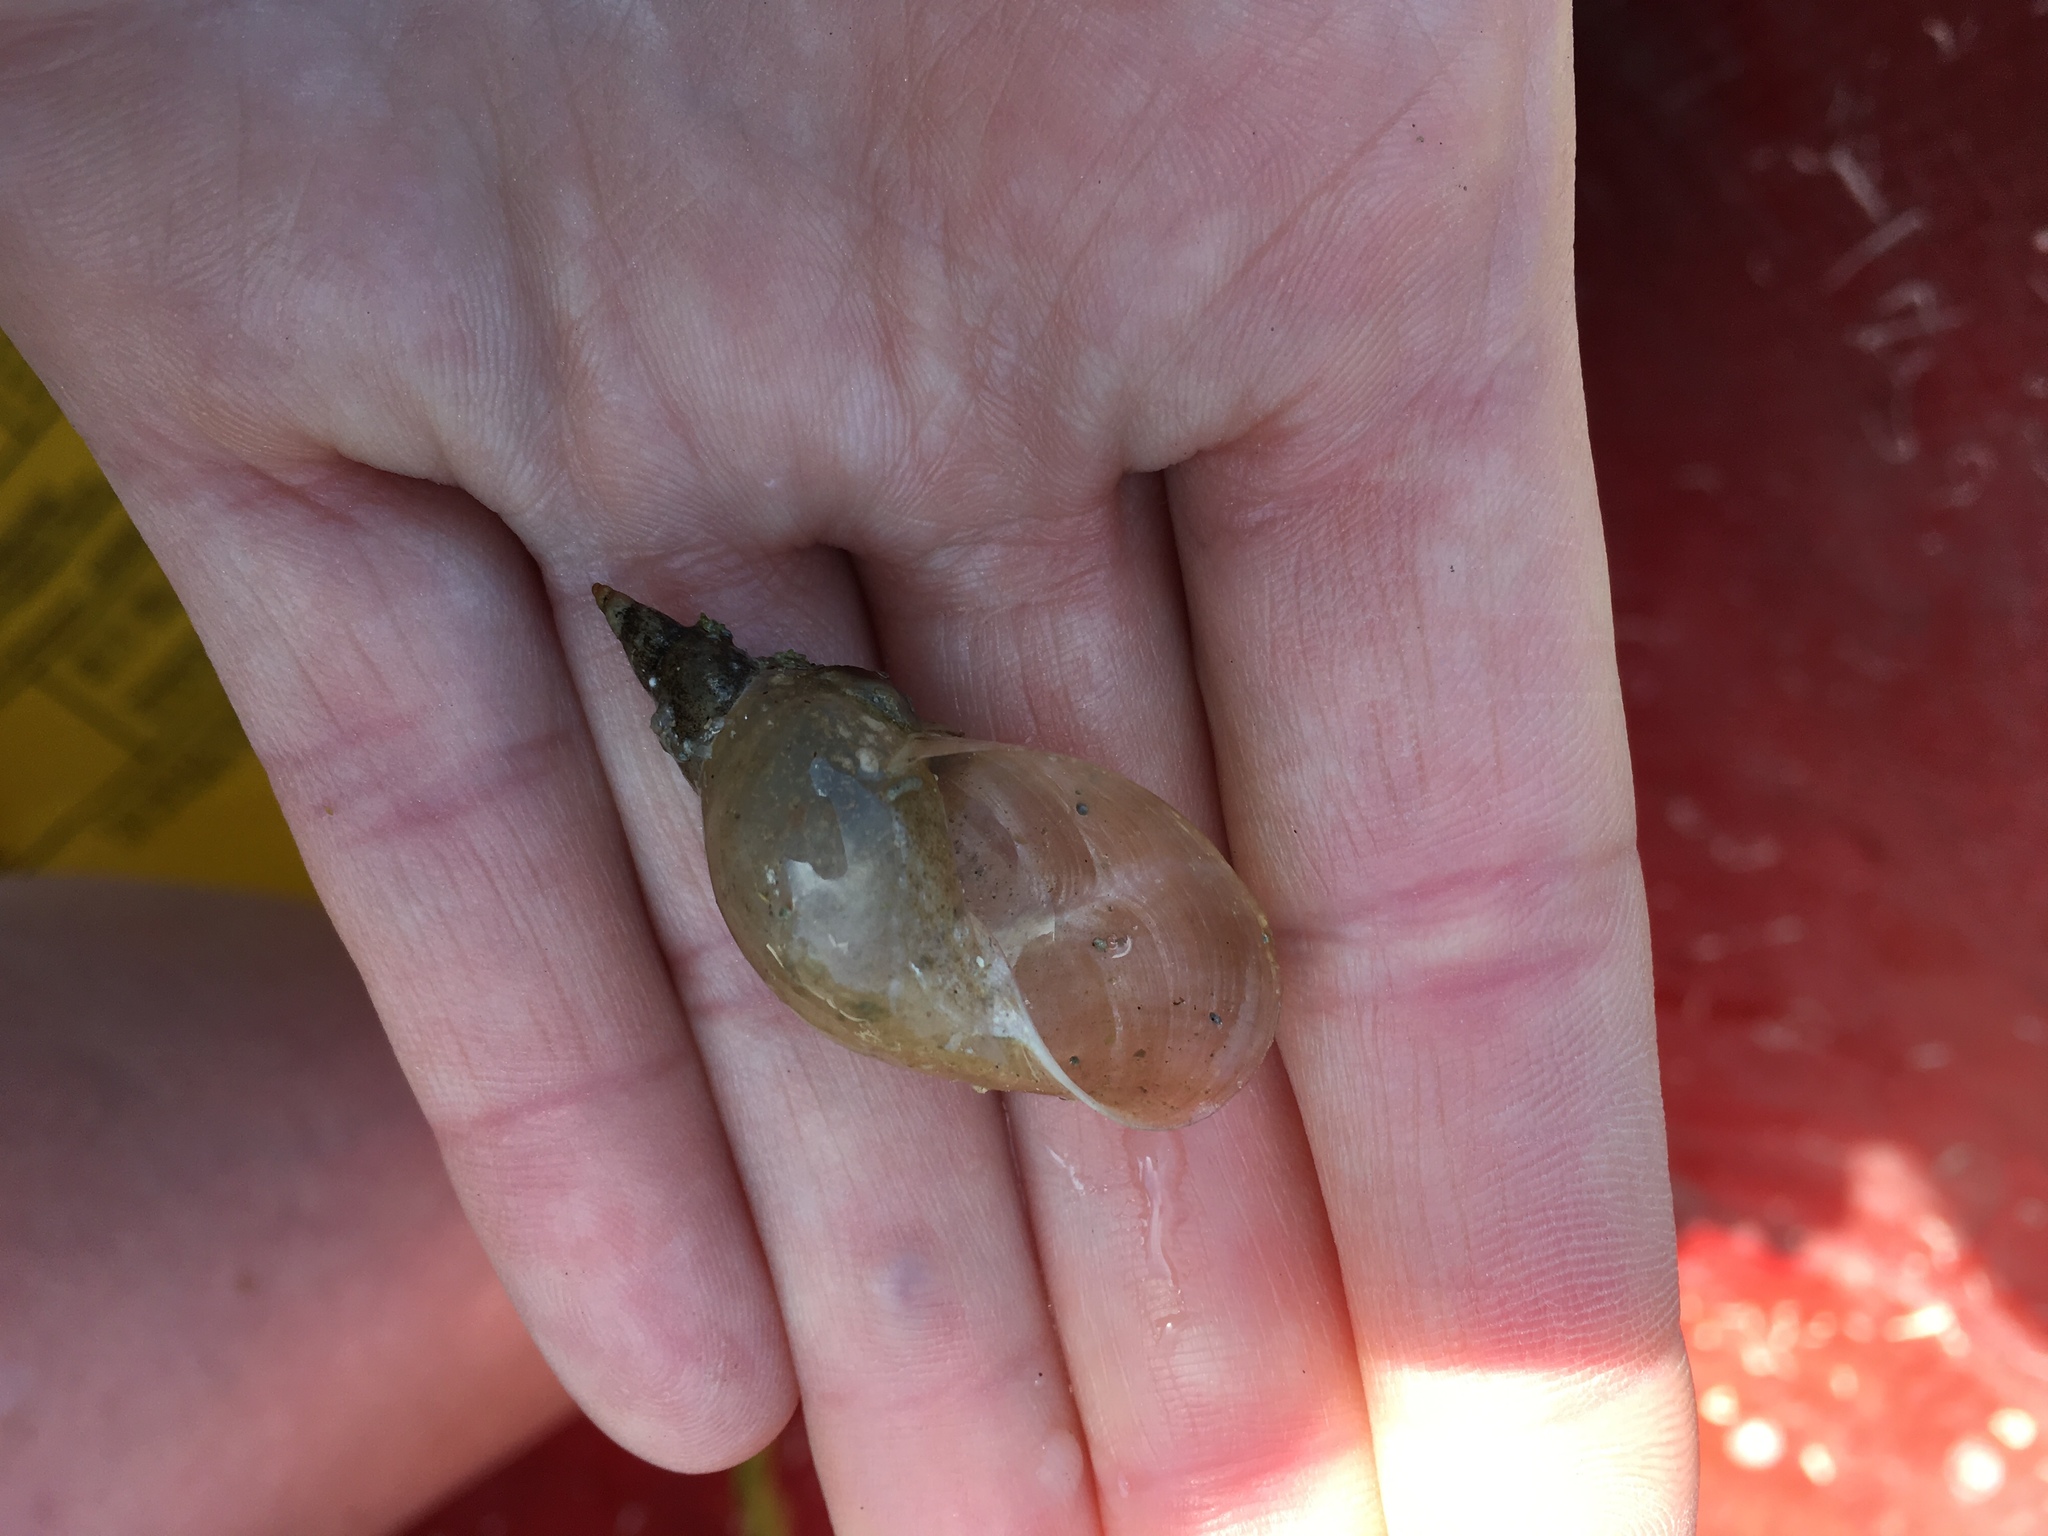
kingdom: Animalia
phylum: Mollusca
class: Gastropoda
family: Lymnaeidae
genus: Lymnaea
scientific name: Lymnaea stagnalis
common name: Great pond snail
